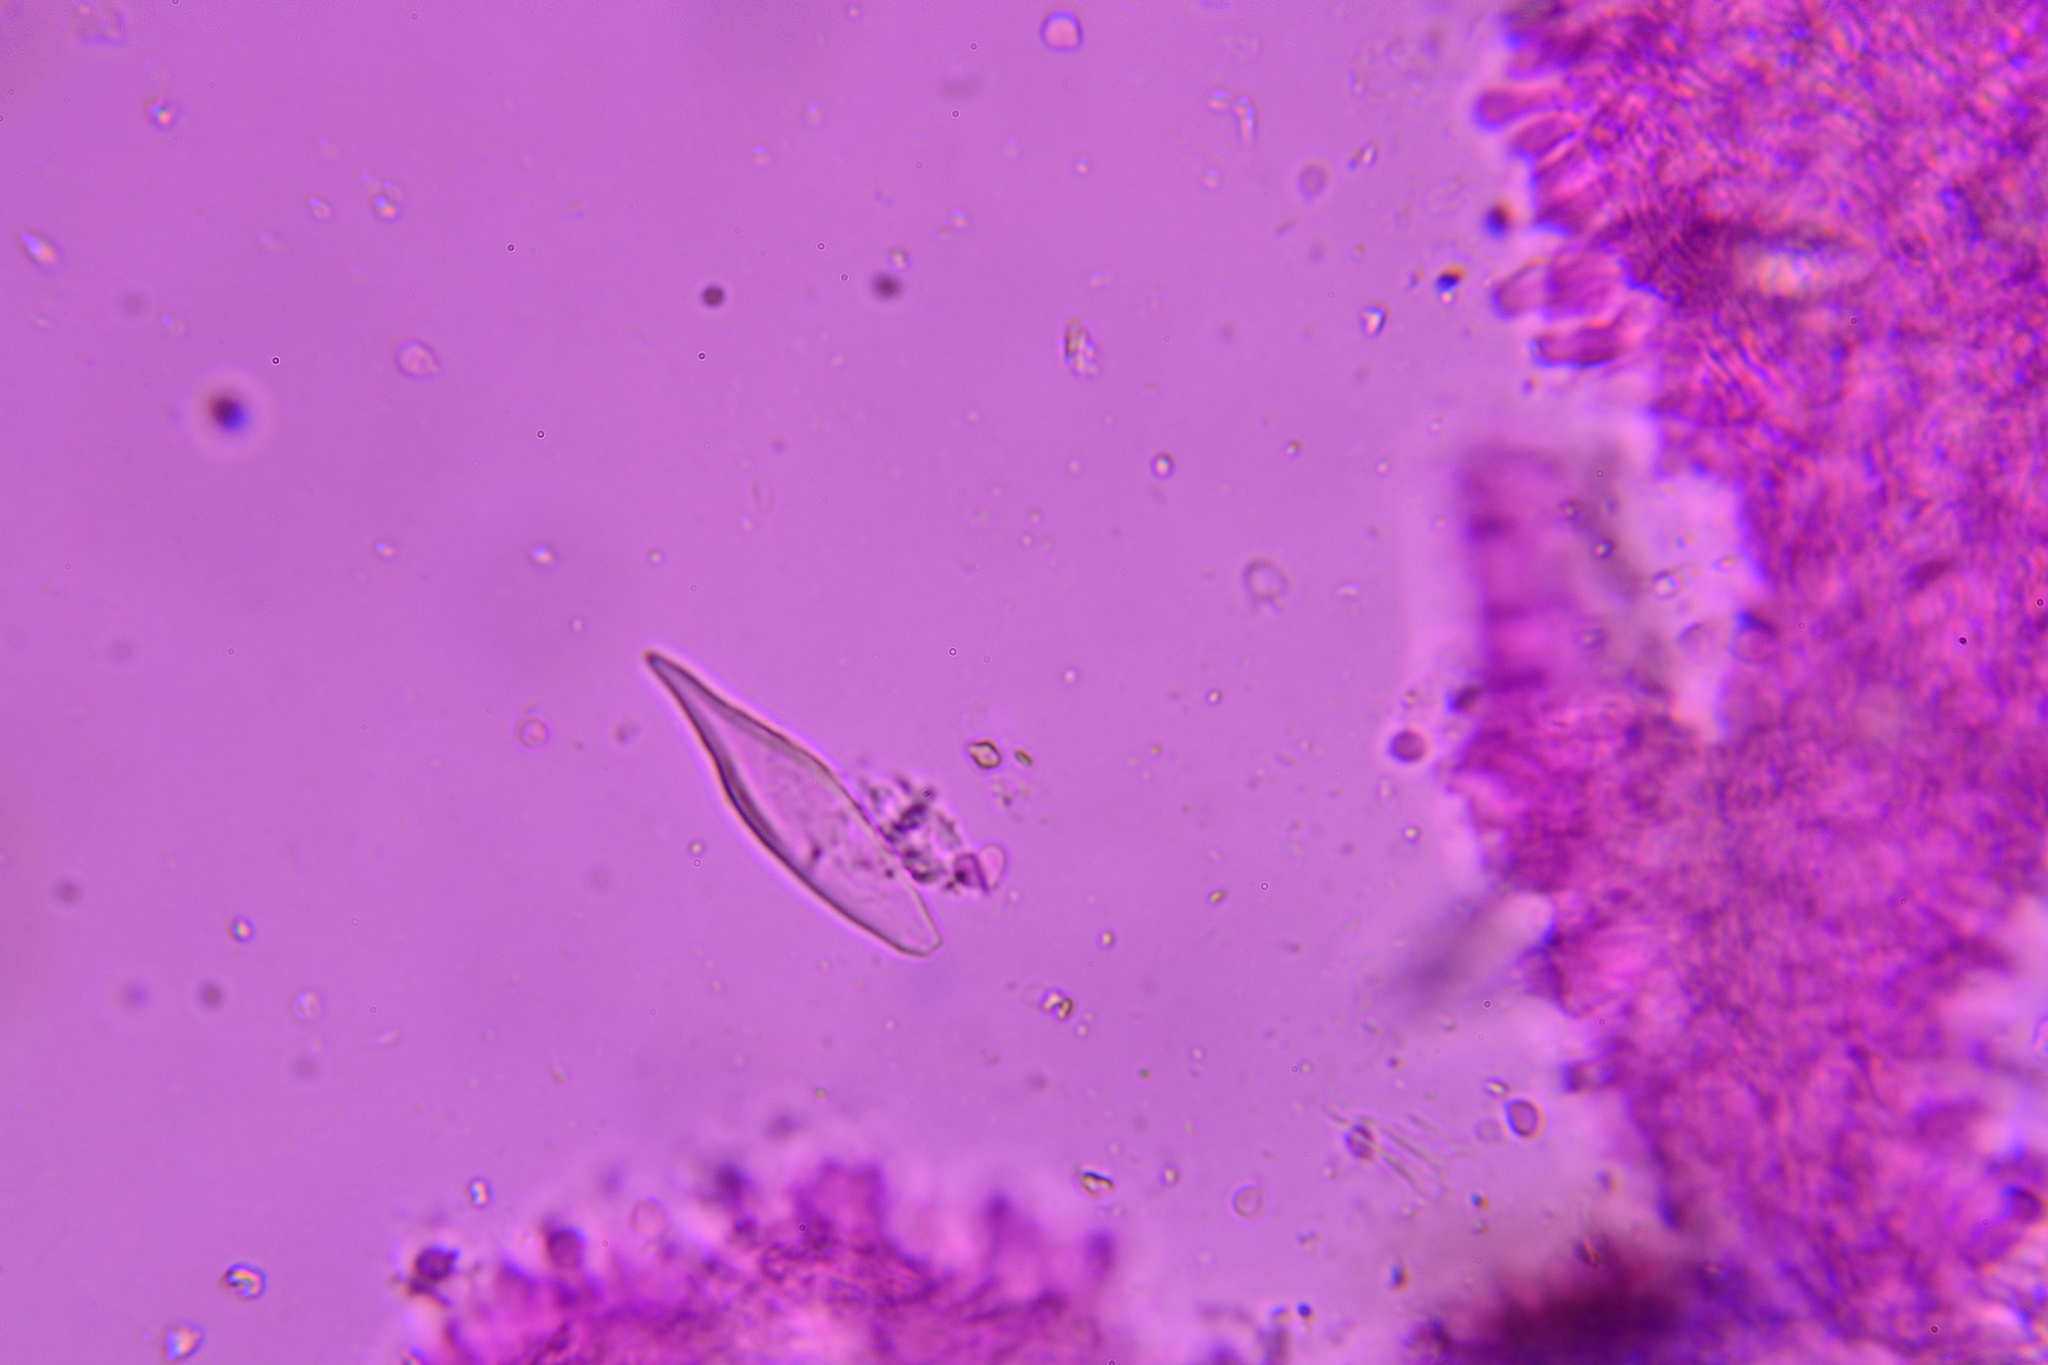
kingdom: Fungi
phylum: Basidiomycota
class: Agaricomycetes
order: Agaricales
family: Pleurotaceae
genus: Hohenbuehelia
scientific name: Hohenbuehelia angustata
